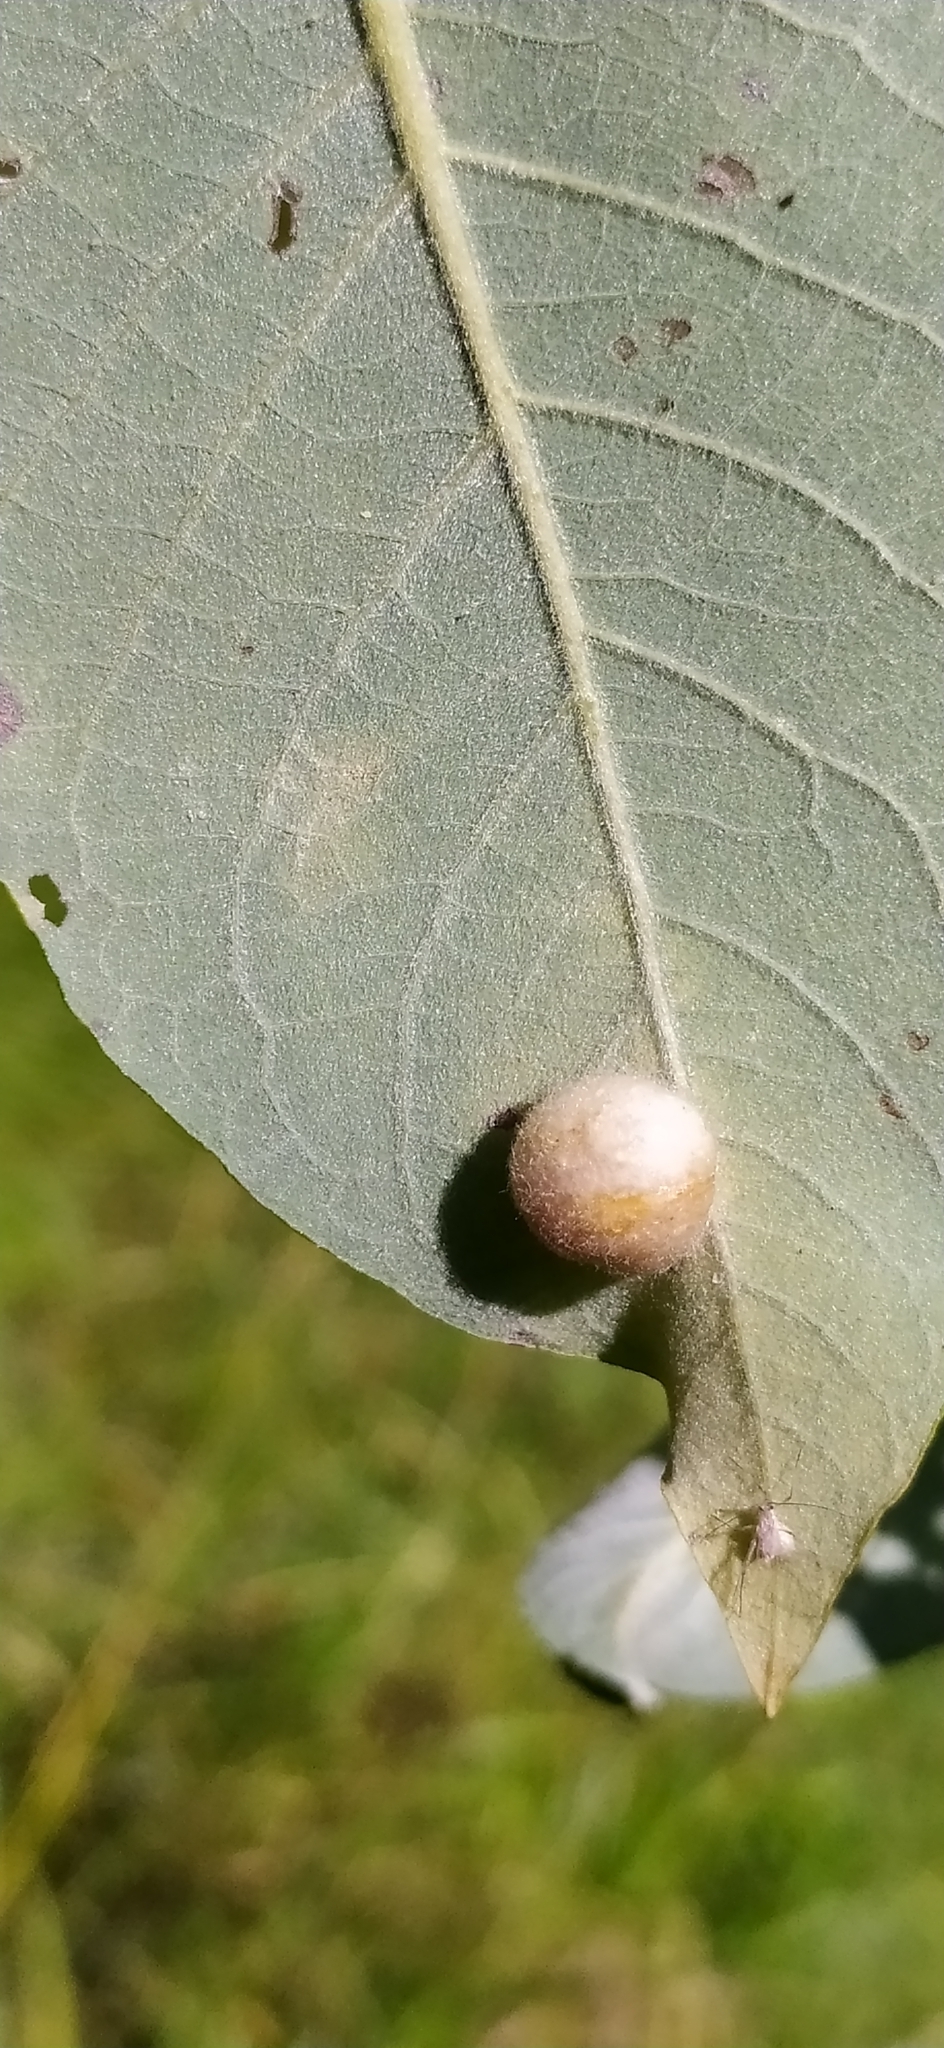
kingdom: Animalia
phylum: Arthropoda
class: Insecta
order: Hymenoptera
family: Tenthredinidae
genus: Pontania
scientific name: Pontania pedunculi
